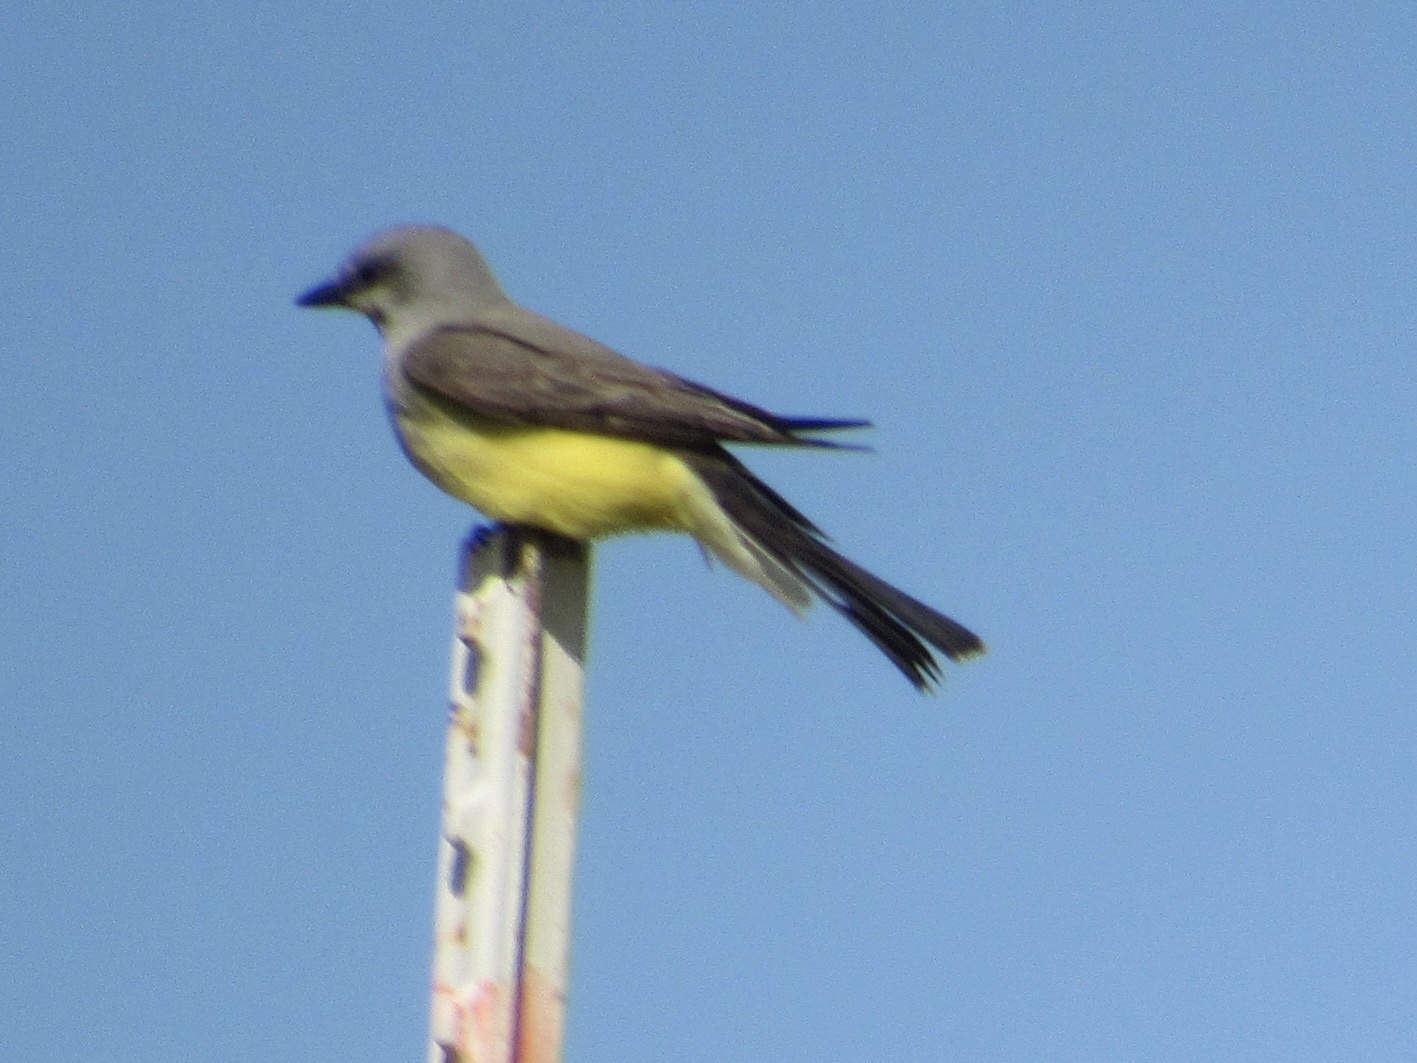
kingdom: Animalia
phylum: Chordata
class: Aves
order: Passeriformes
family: Tyrannidae
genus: Tyrannus
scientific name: Tyrannus verticalis
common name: Western kingbird
